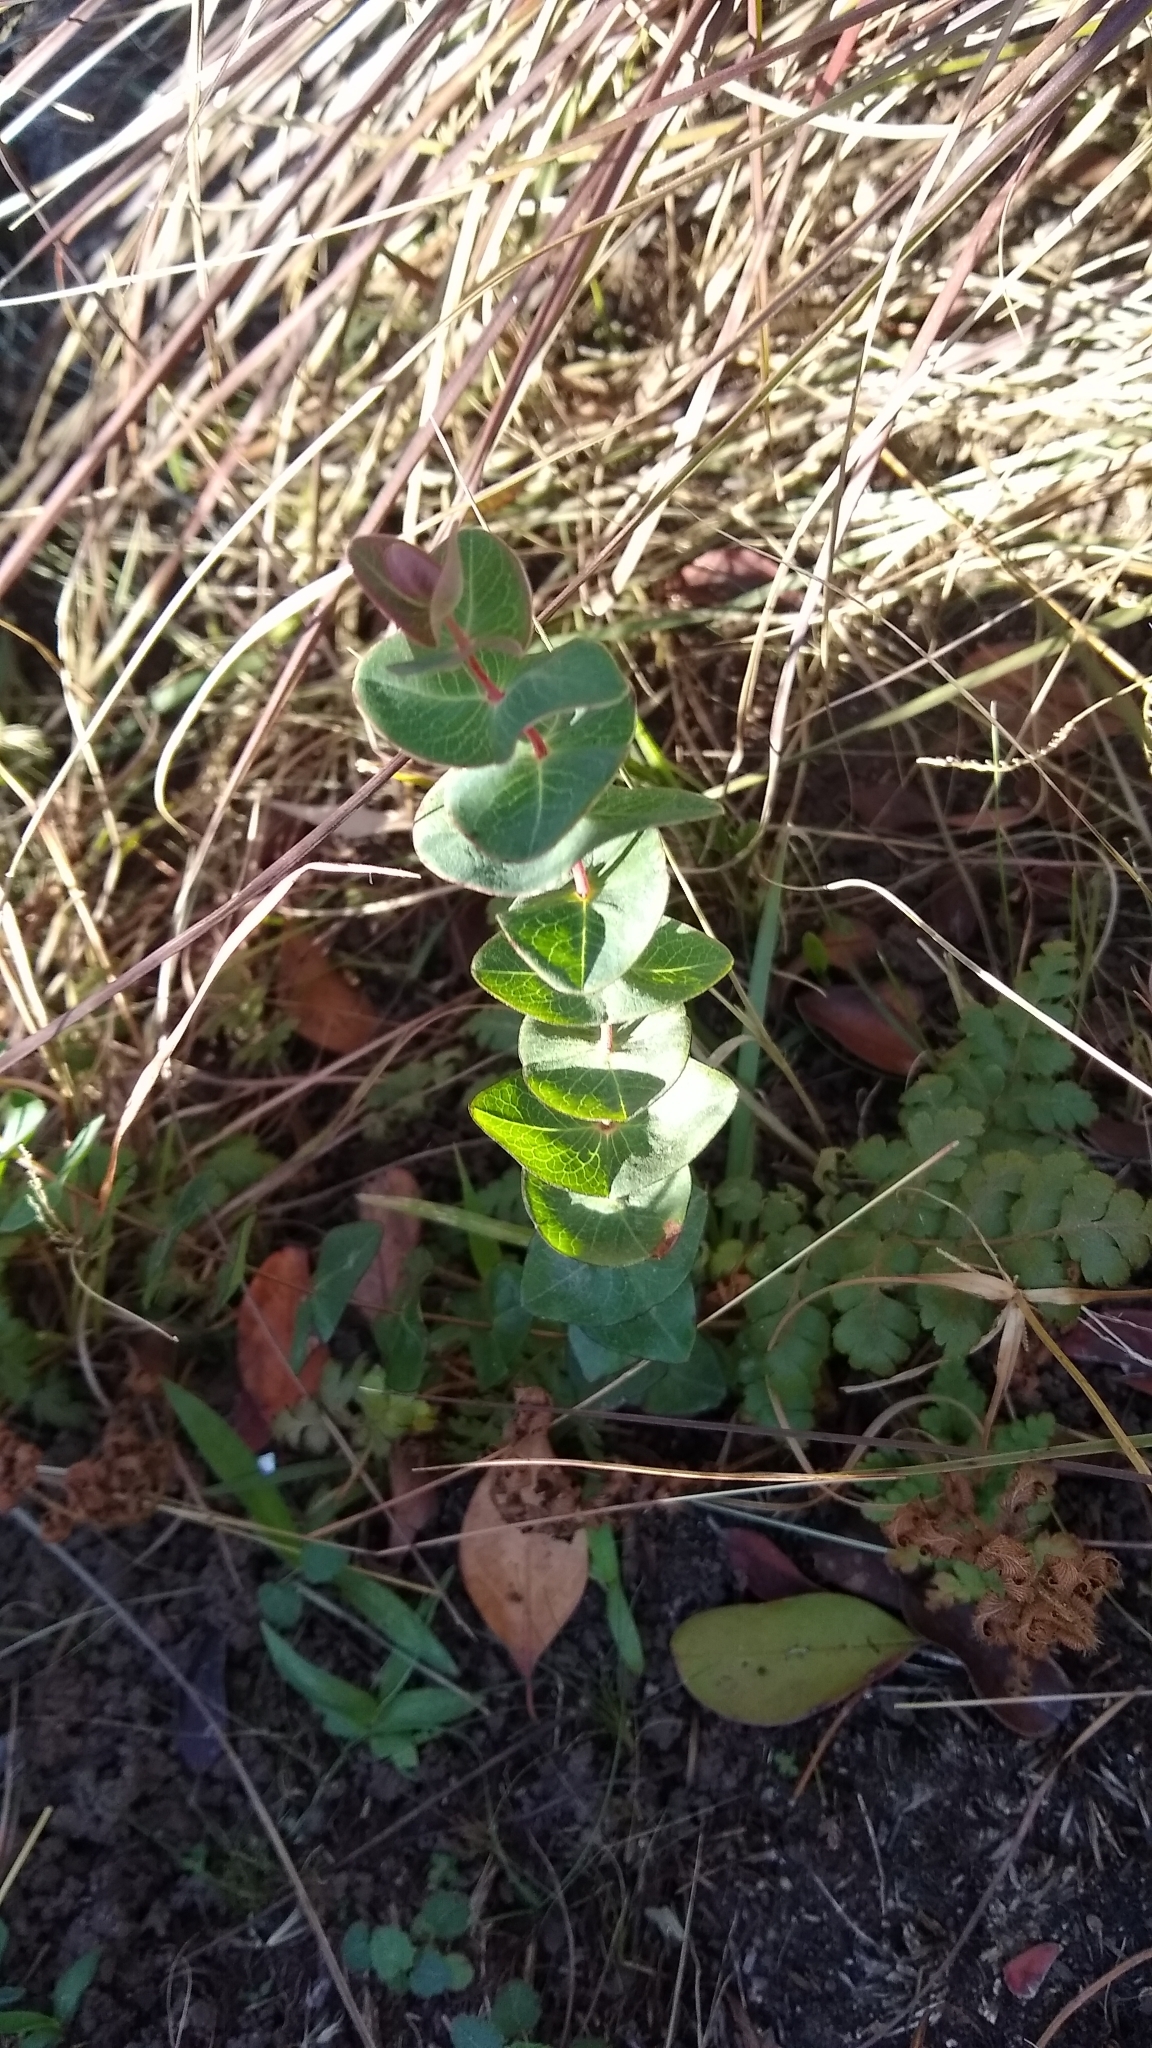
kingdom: Plantae
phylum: Tracheophyta
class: Magnoliopsida
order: Malpighiales
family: Hypericaceae
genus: Hypericum
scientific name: Hypericum connatum
